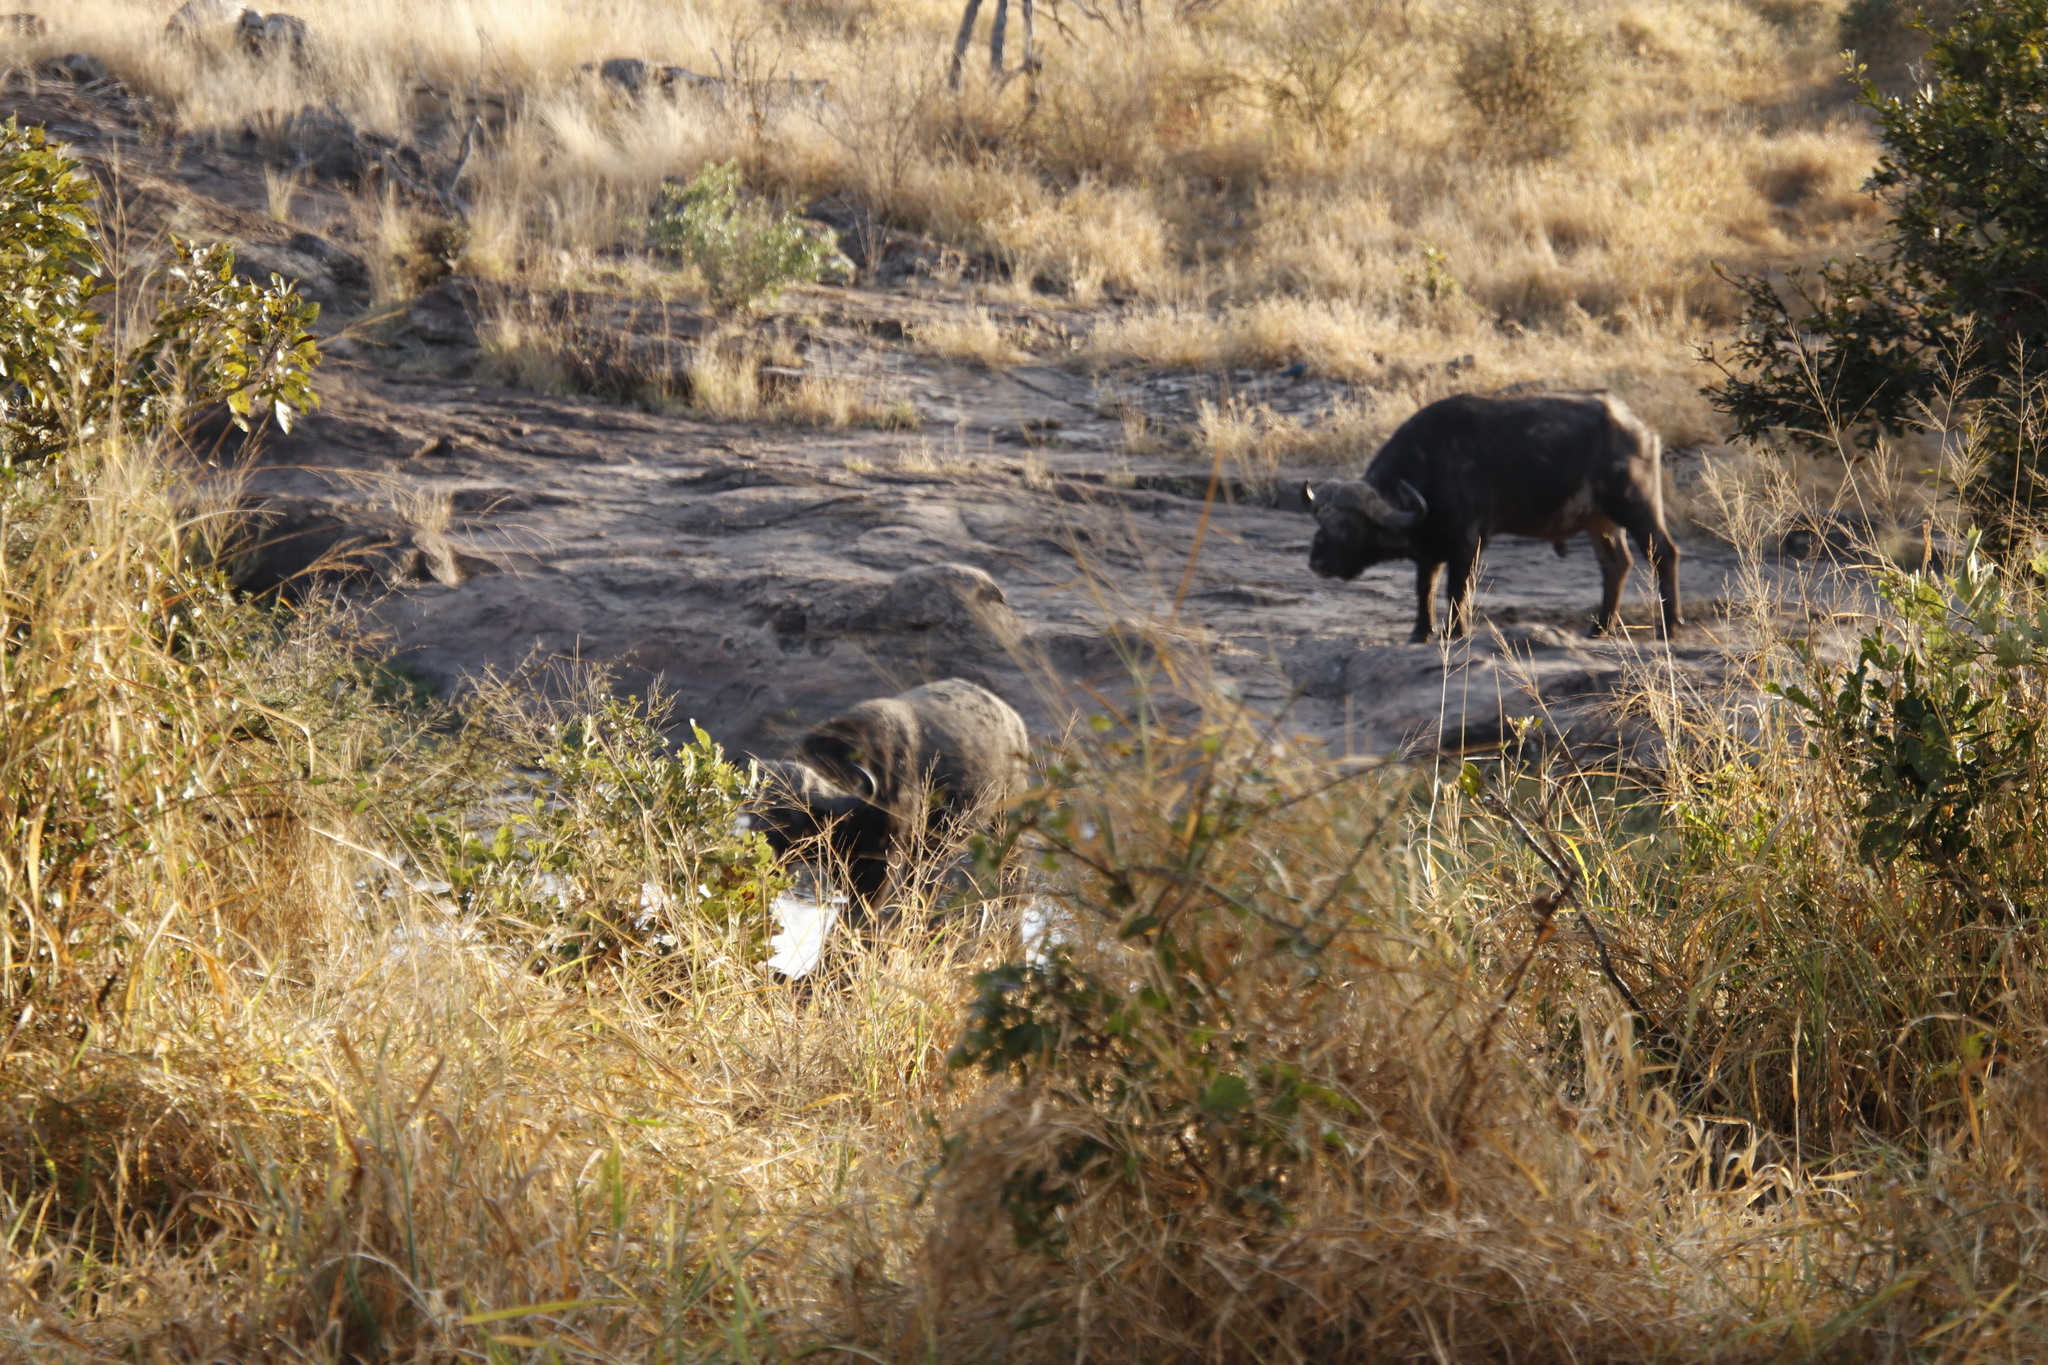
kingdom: Animalia
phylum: Chordata
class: Mammalia
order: Artiodactyla
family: Bovidae
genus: Syncerus
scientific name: Syncerus caffer
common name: African buffalo
